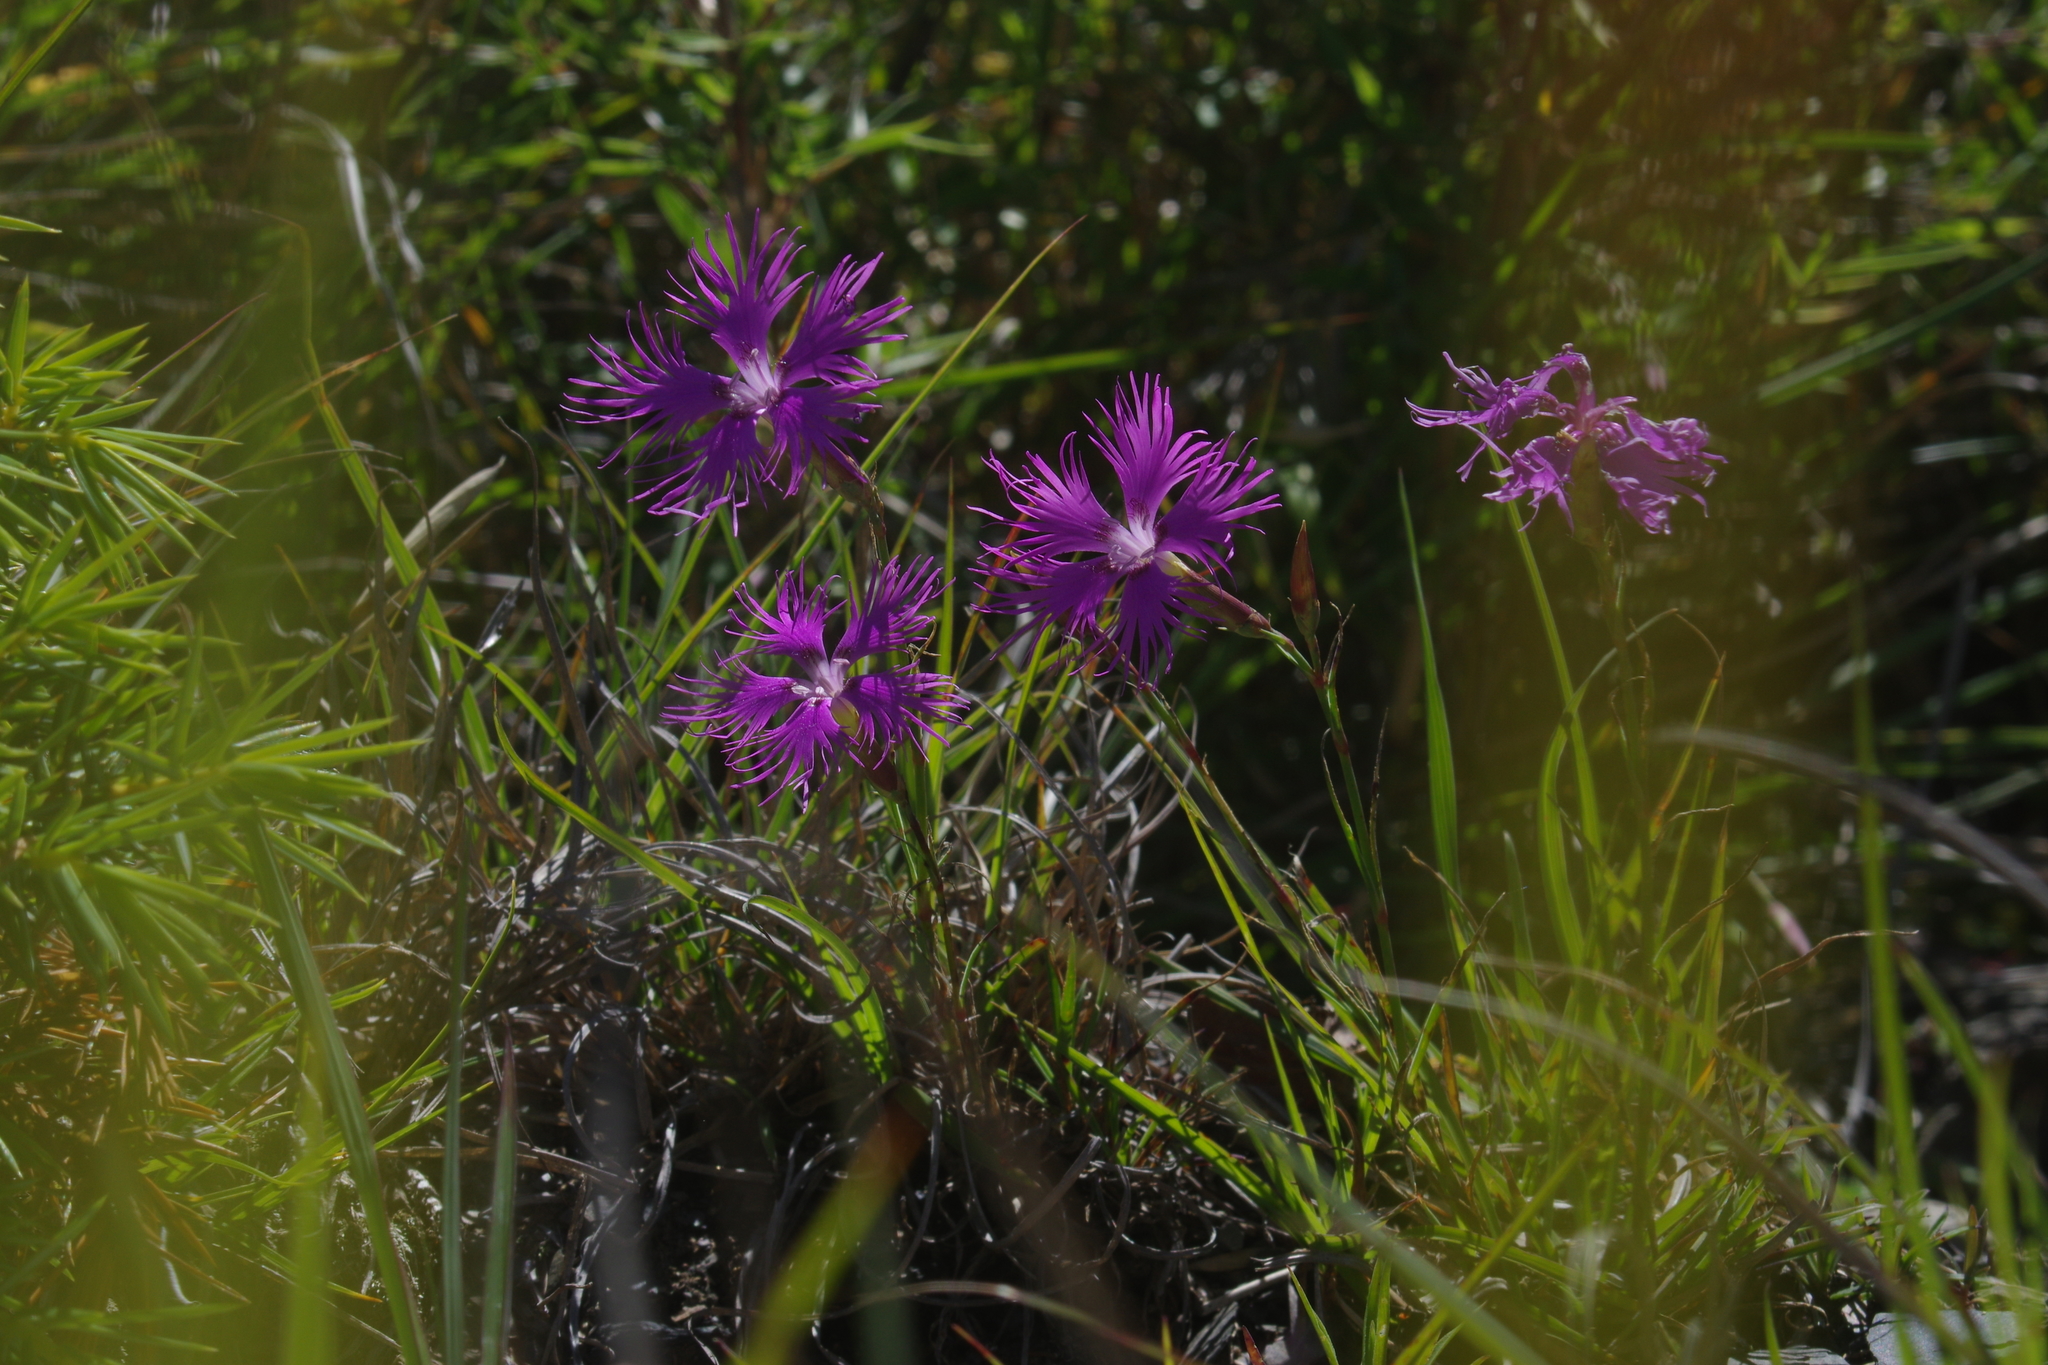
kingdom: Plantae
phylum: Tracheophyta
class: Magnoliopsida
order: Caryophyllales
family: Caryophyllaceae
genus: Dianthus
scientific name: Dianthus pygmaeus
